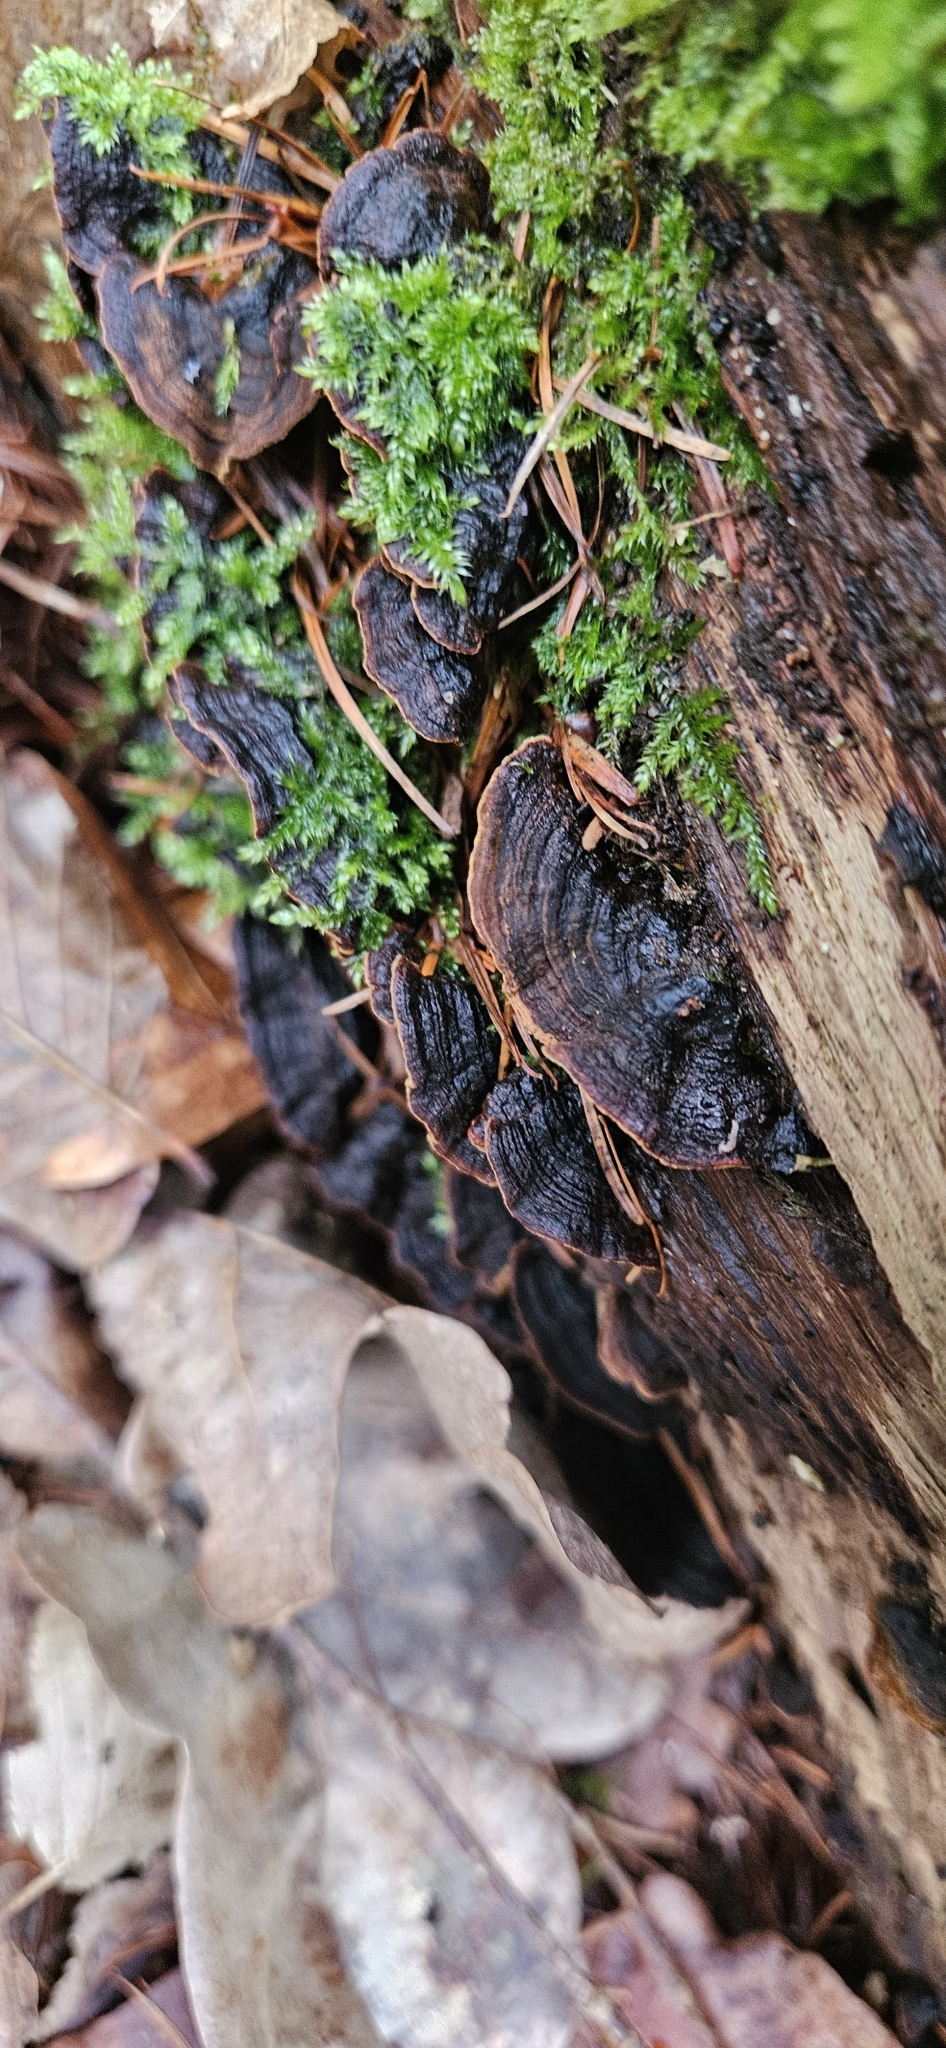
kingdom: Fungi
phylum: Basidiomycota
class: Agaricomycetes
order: Hymenochaetales
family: Hymenochaetaceae
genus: Hymenochaete
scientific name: Hymenochaete rubiginosa
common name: Oak curtain crust
